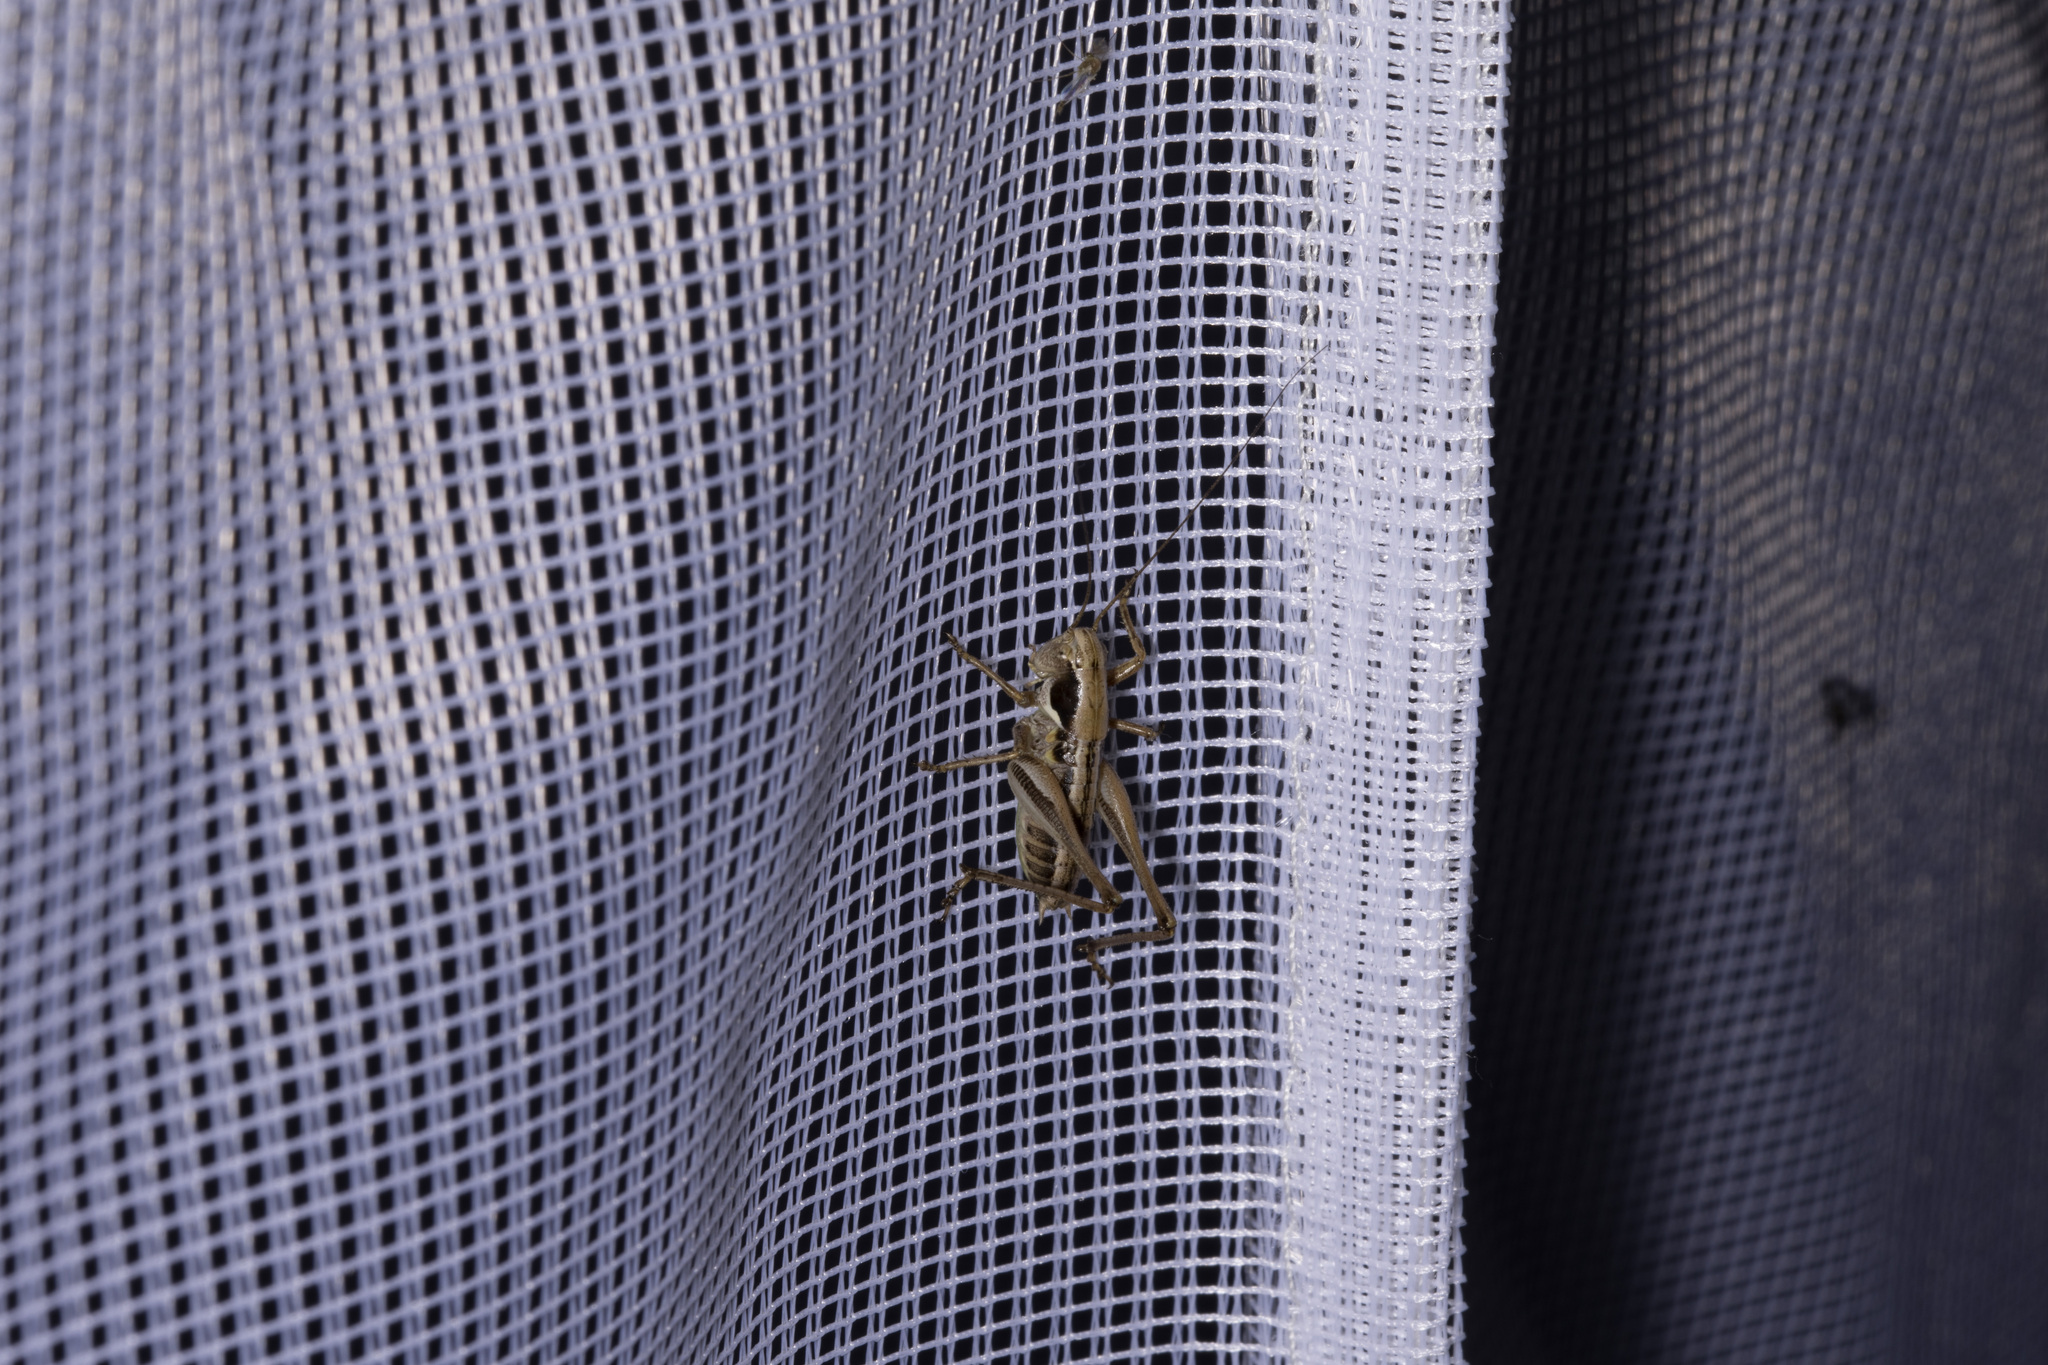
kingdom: Animalia
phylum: Arthropoda
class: Insecta
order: Orthoptera
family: Tettigoniidae
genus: Platycleis
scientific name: Platycleis albopunctata
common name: Grey bush-cricket
